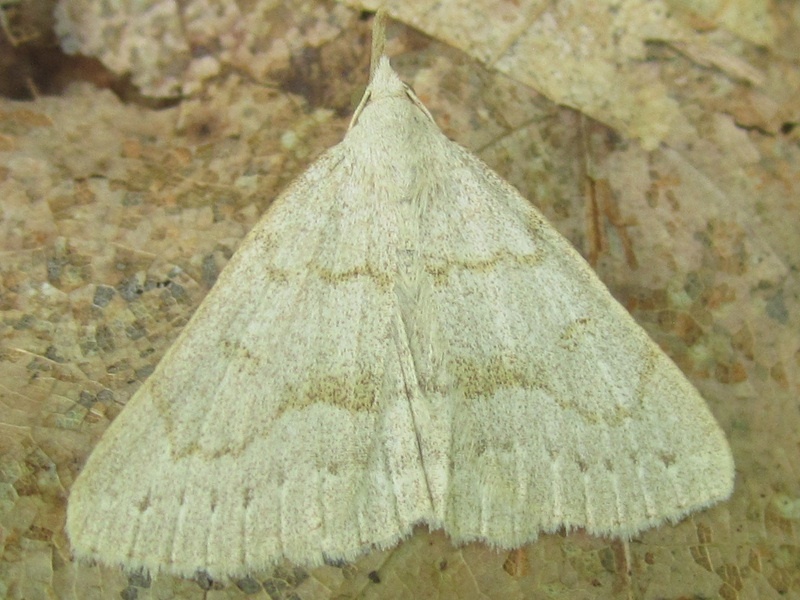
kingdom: Animalia
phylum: Arthropoda
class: Insecta
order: Lepidoptera
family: Erebidae
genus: Macrochilo
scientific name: Macrochilo morbidalis
